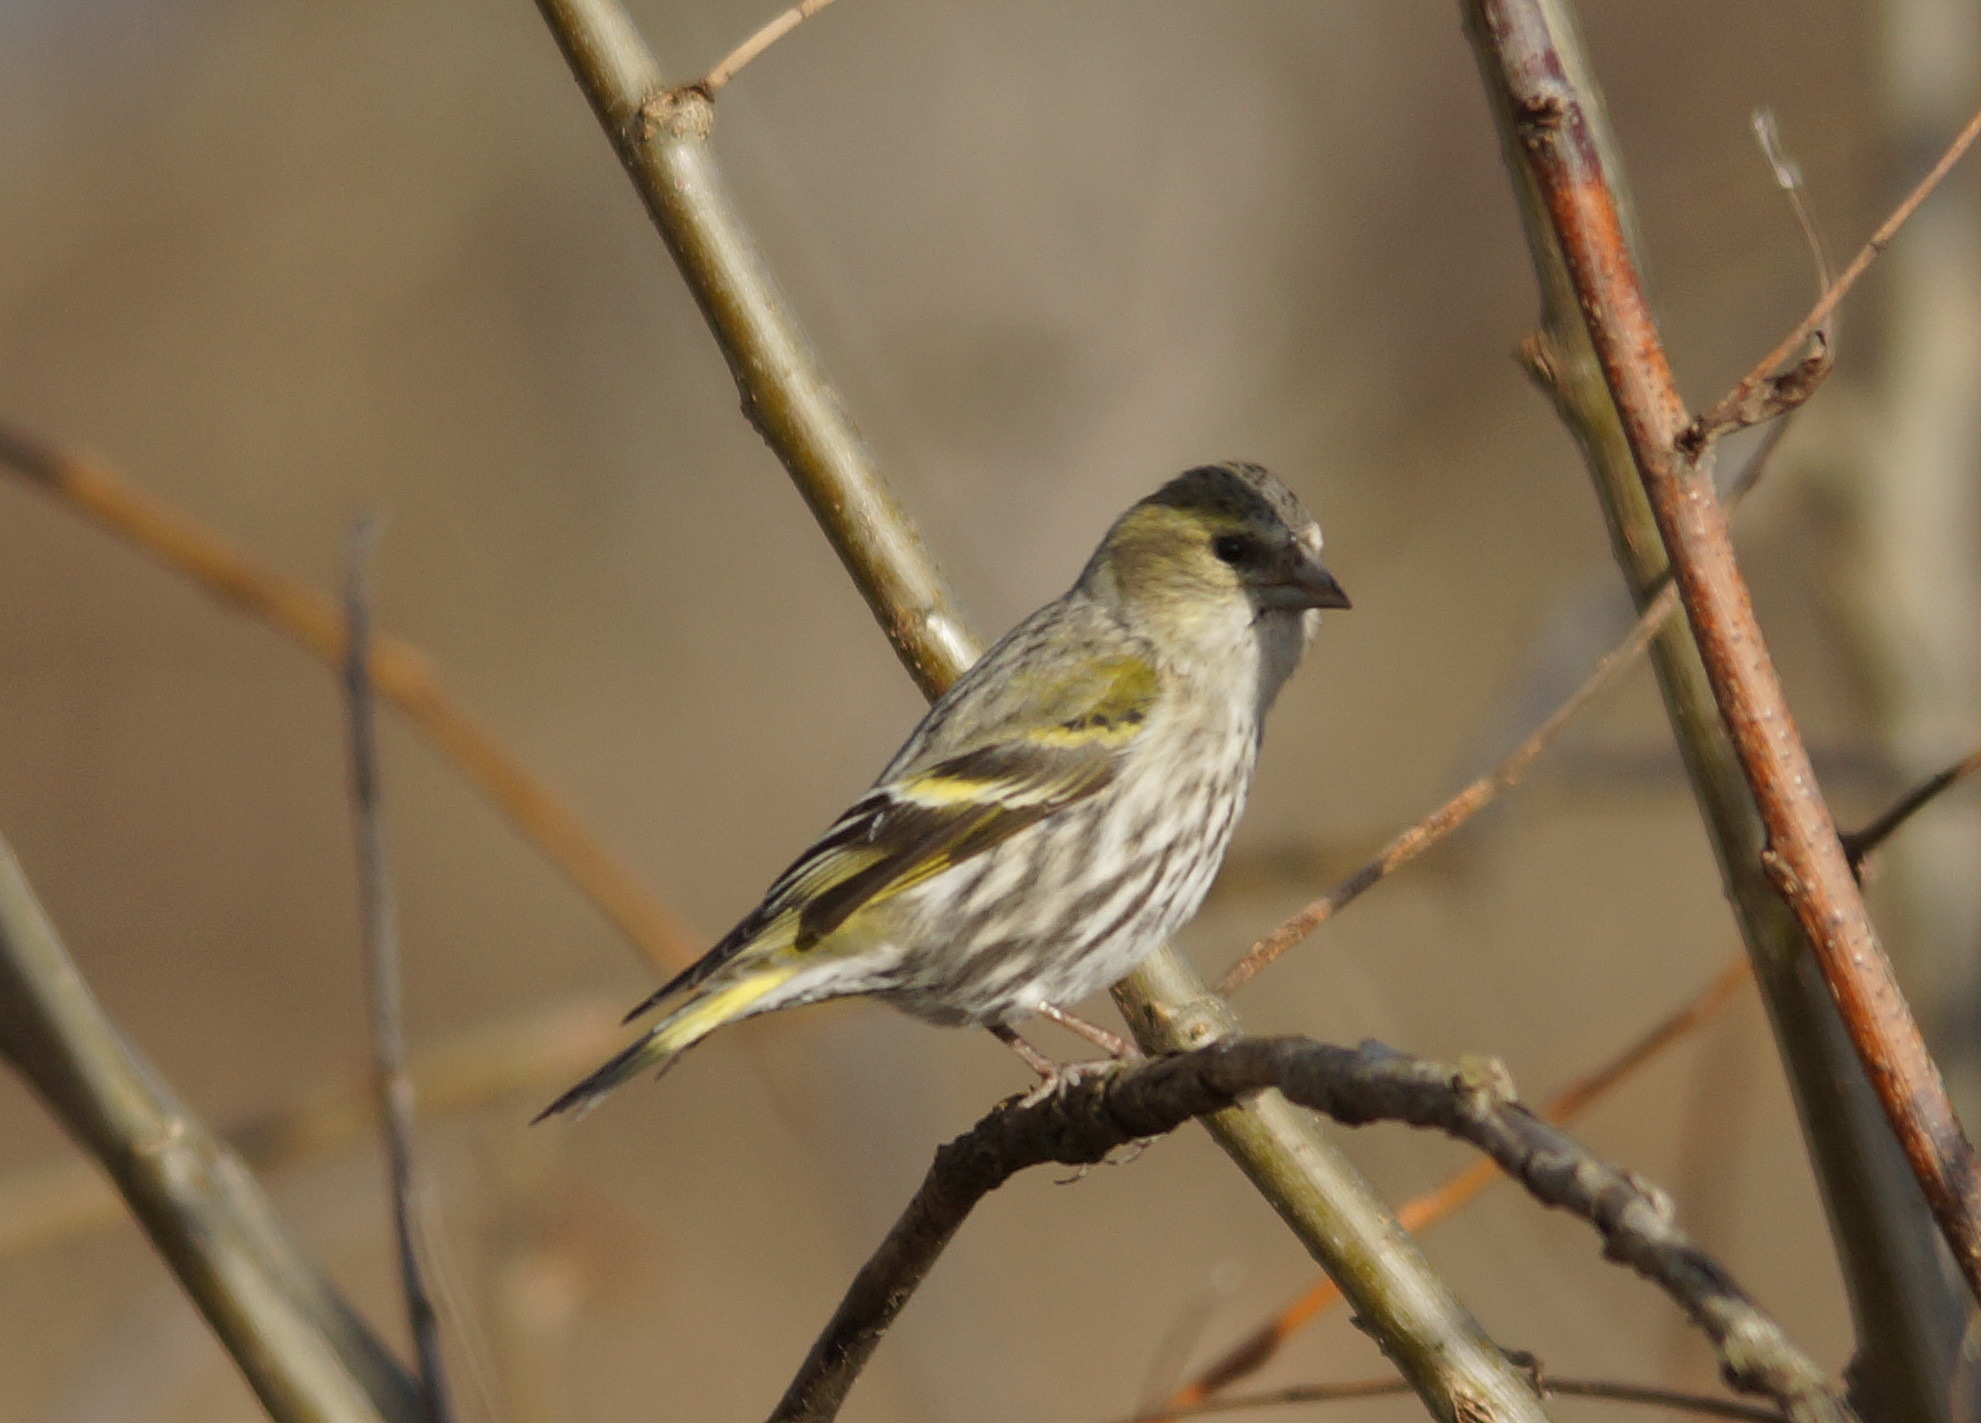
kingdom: Animalia
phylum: Chordata
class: Aves
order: Passeriformes
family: Fringillidae
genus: Spinus
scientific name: Spinus spinus
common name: Eurasian siskin
